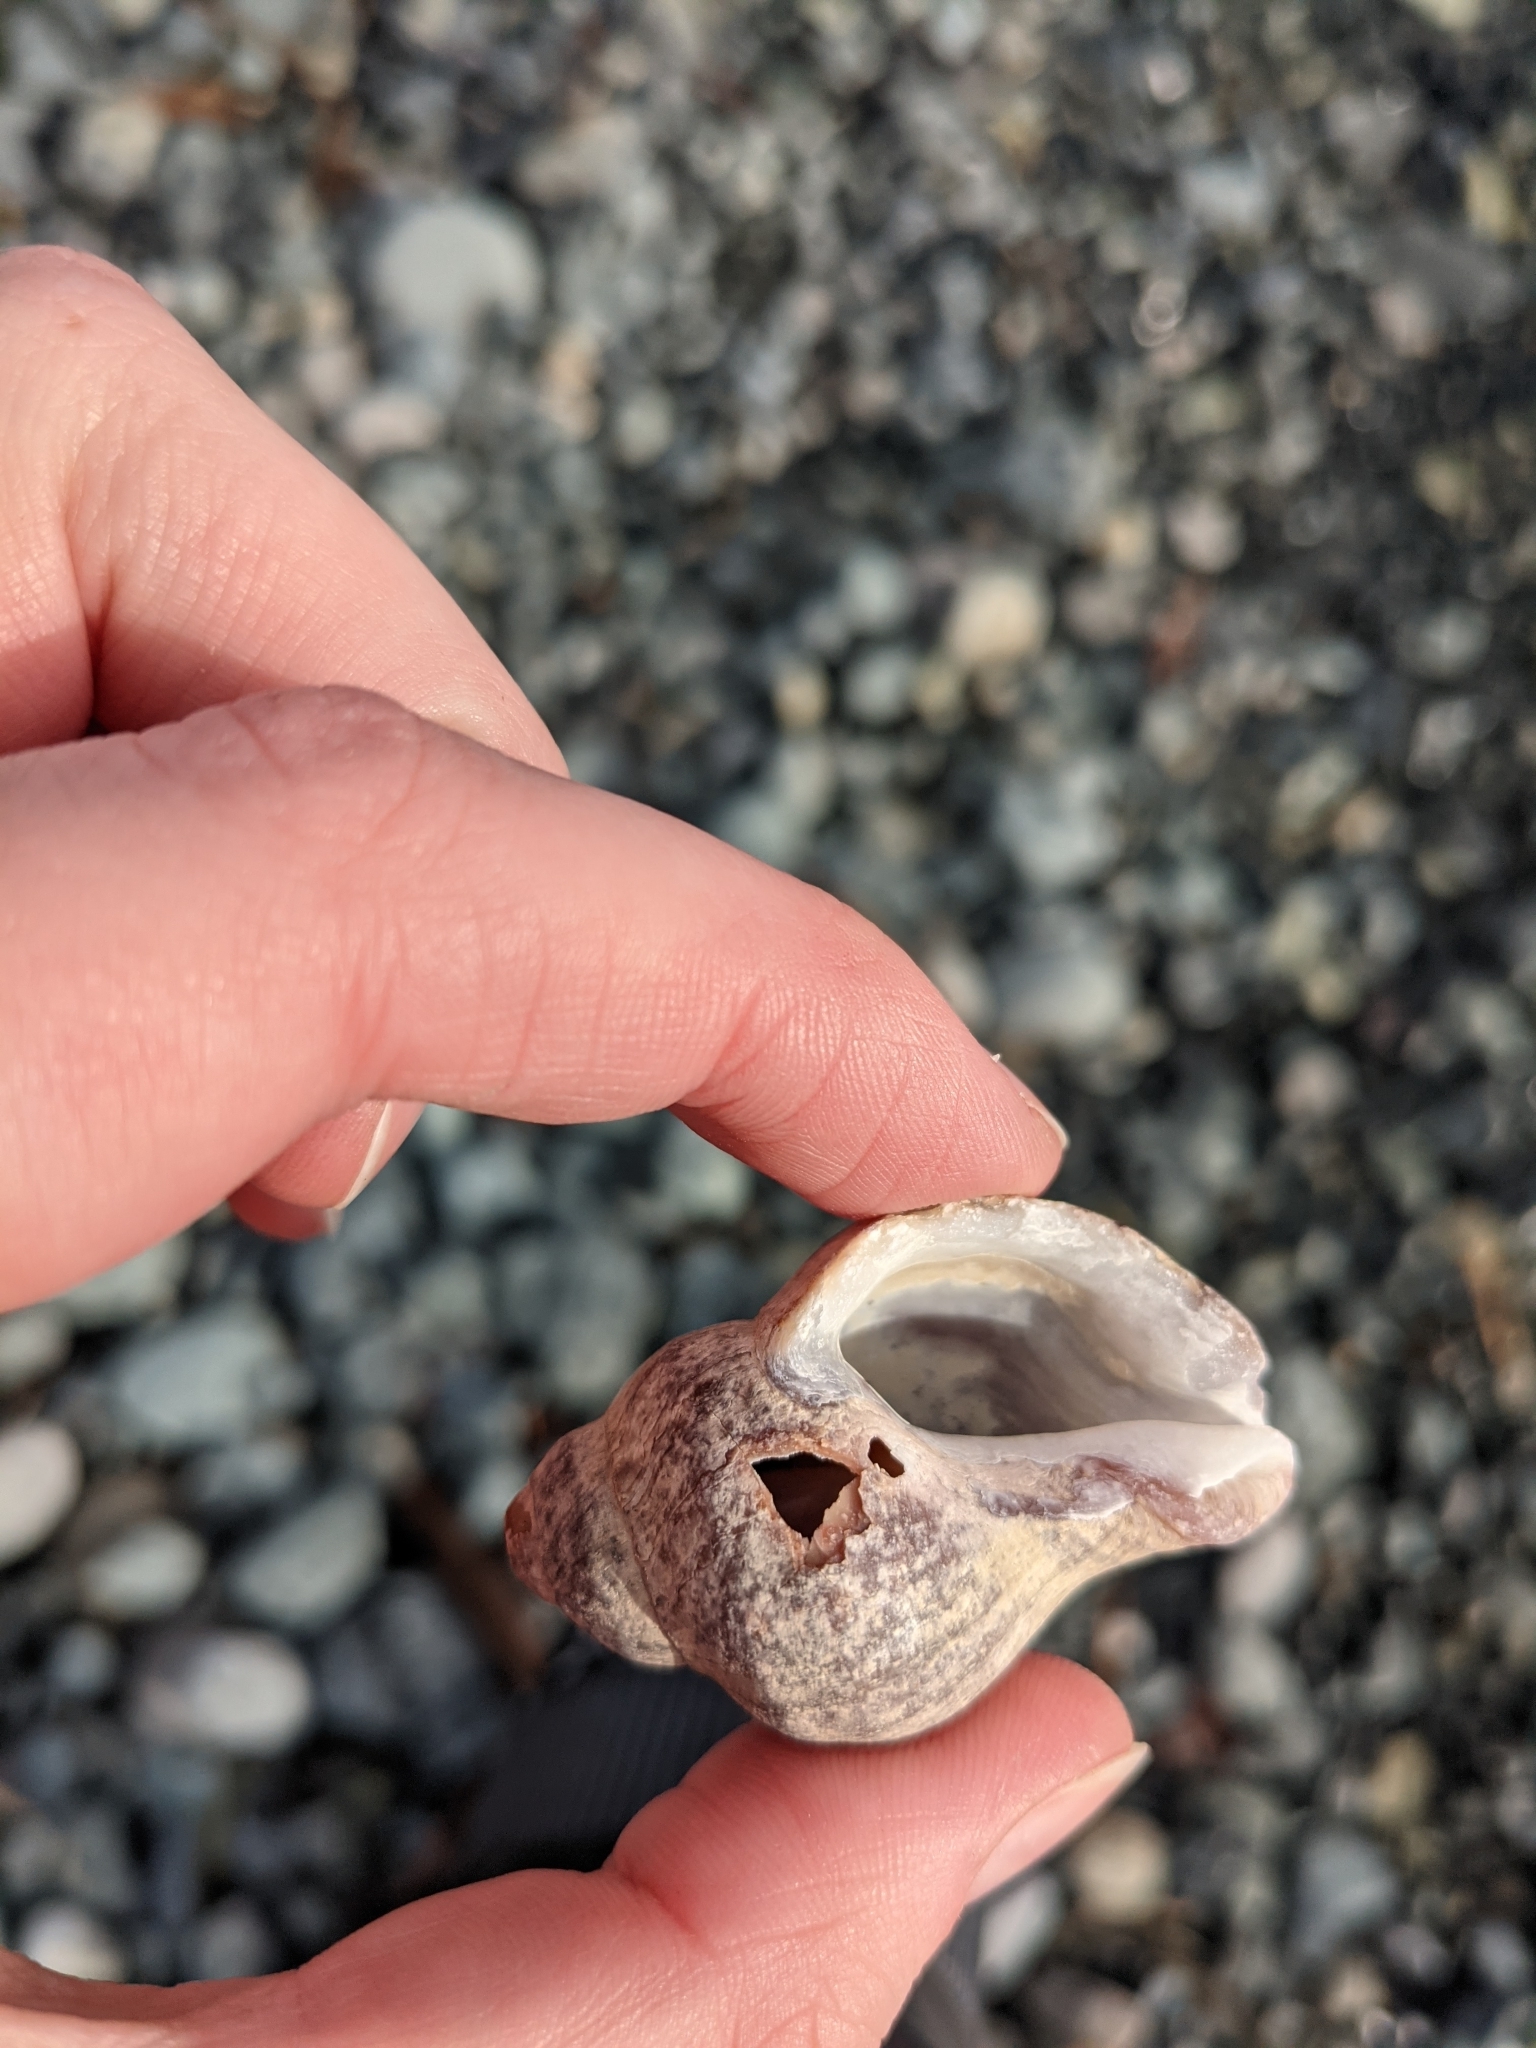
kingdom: Animalia
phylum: Mollusca
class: Gastropoda
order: Neogastropoda
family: Muricidae
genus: Nucella
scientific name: Nucella lamellosa
